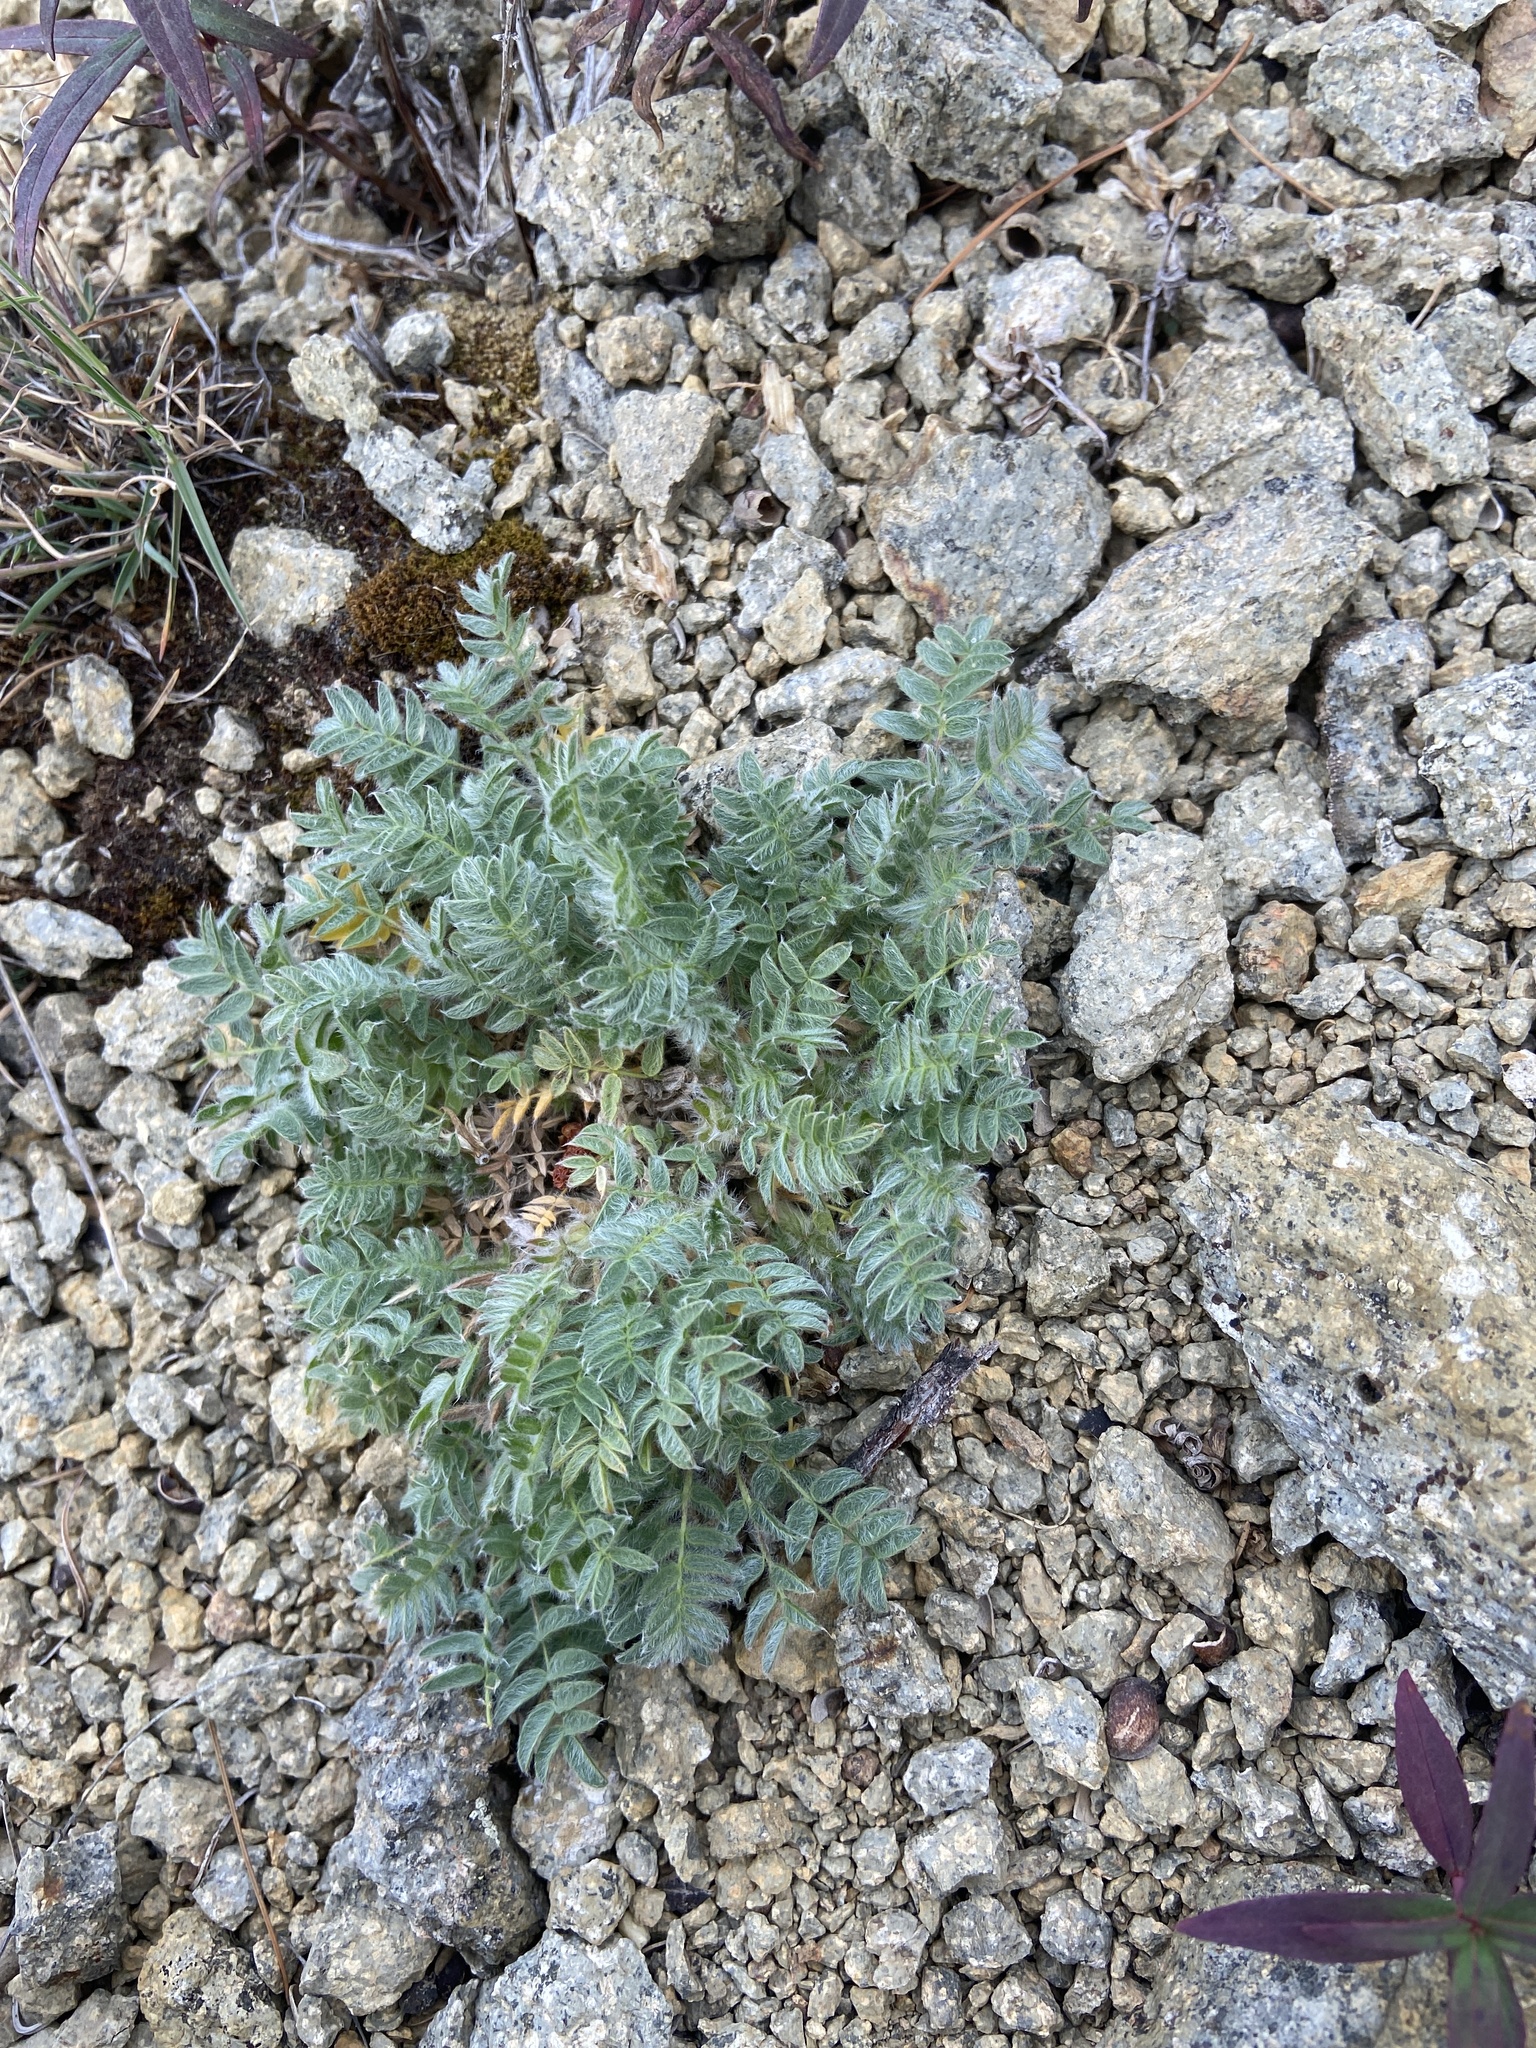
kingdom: Plantae
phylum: Tracheophyta
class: Magnoliopsida
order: Fabales
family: Fabaceae
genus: Oxytropis
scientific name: Oxytropis susumanica
